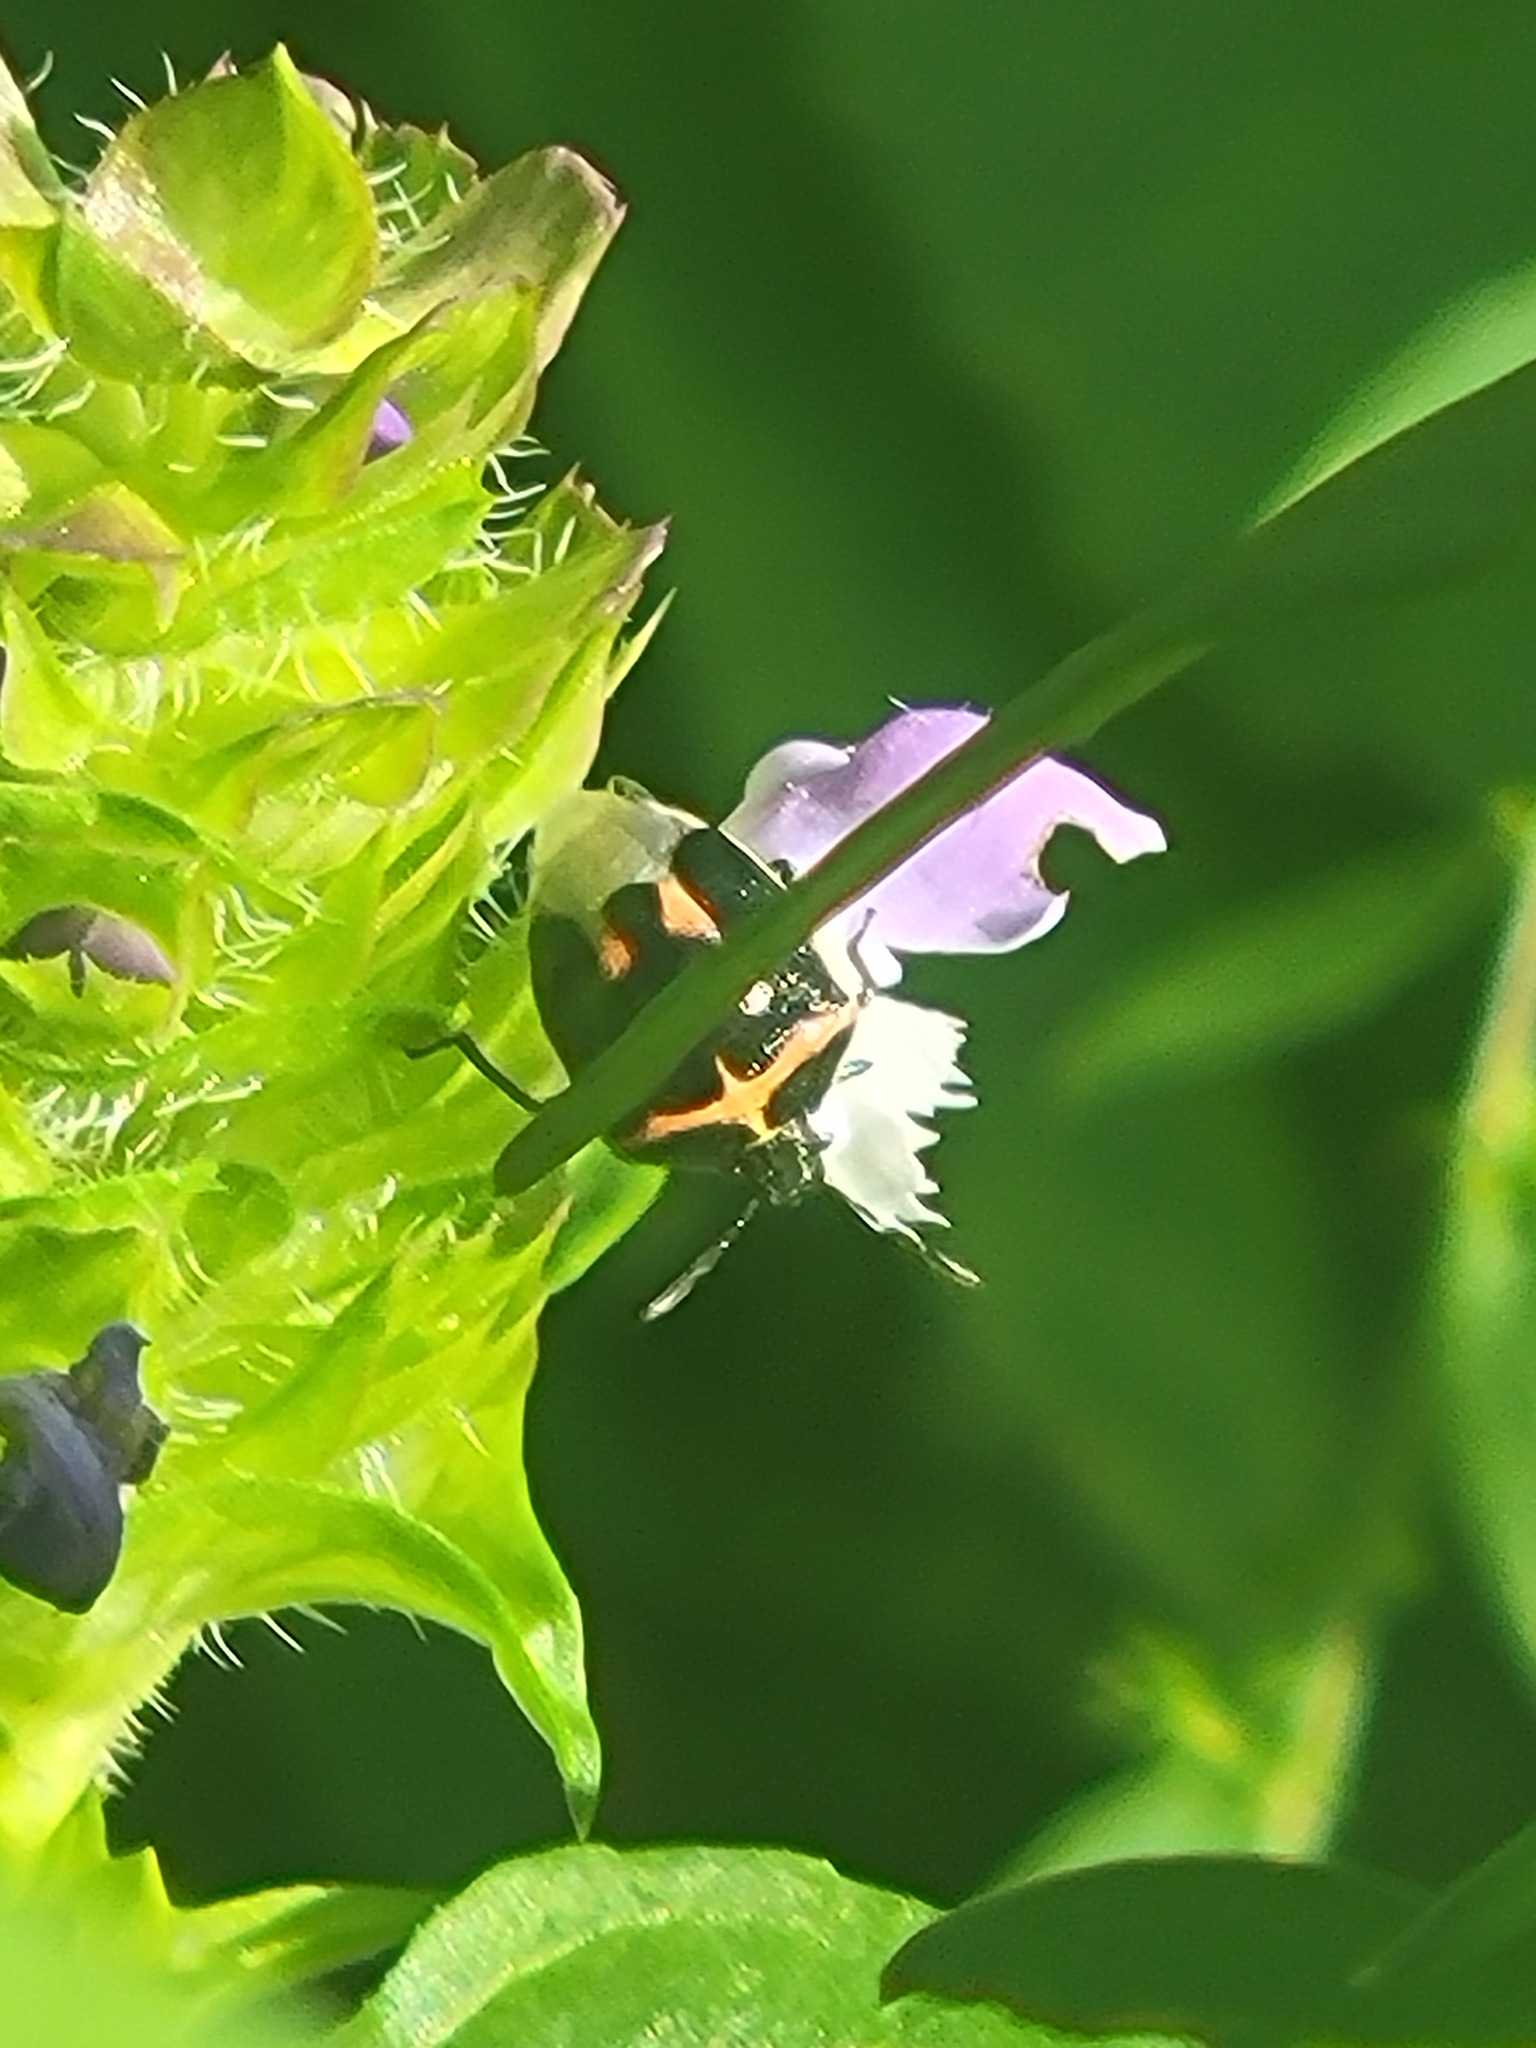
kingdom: Animalia
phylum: Arthropoda
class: Insecta
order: Hemiptera
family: Pentatomidae
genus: Cosmopepla
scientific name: Cosmopepla lintneriana
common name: Twice-stabbed stink bug
